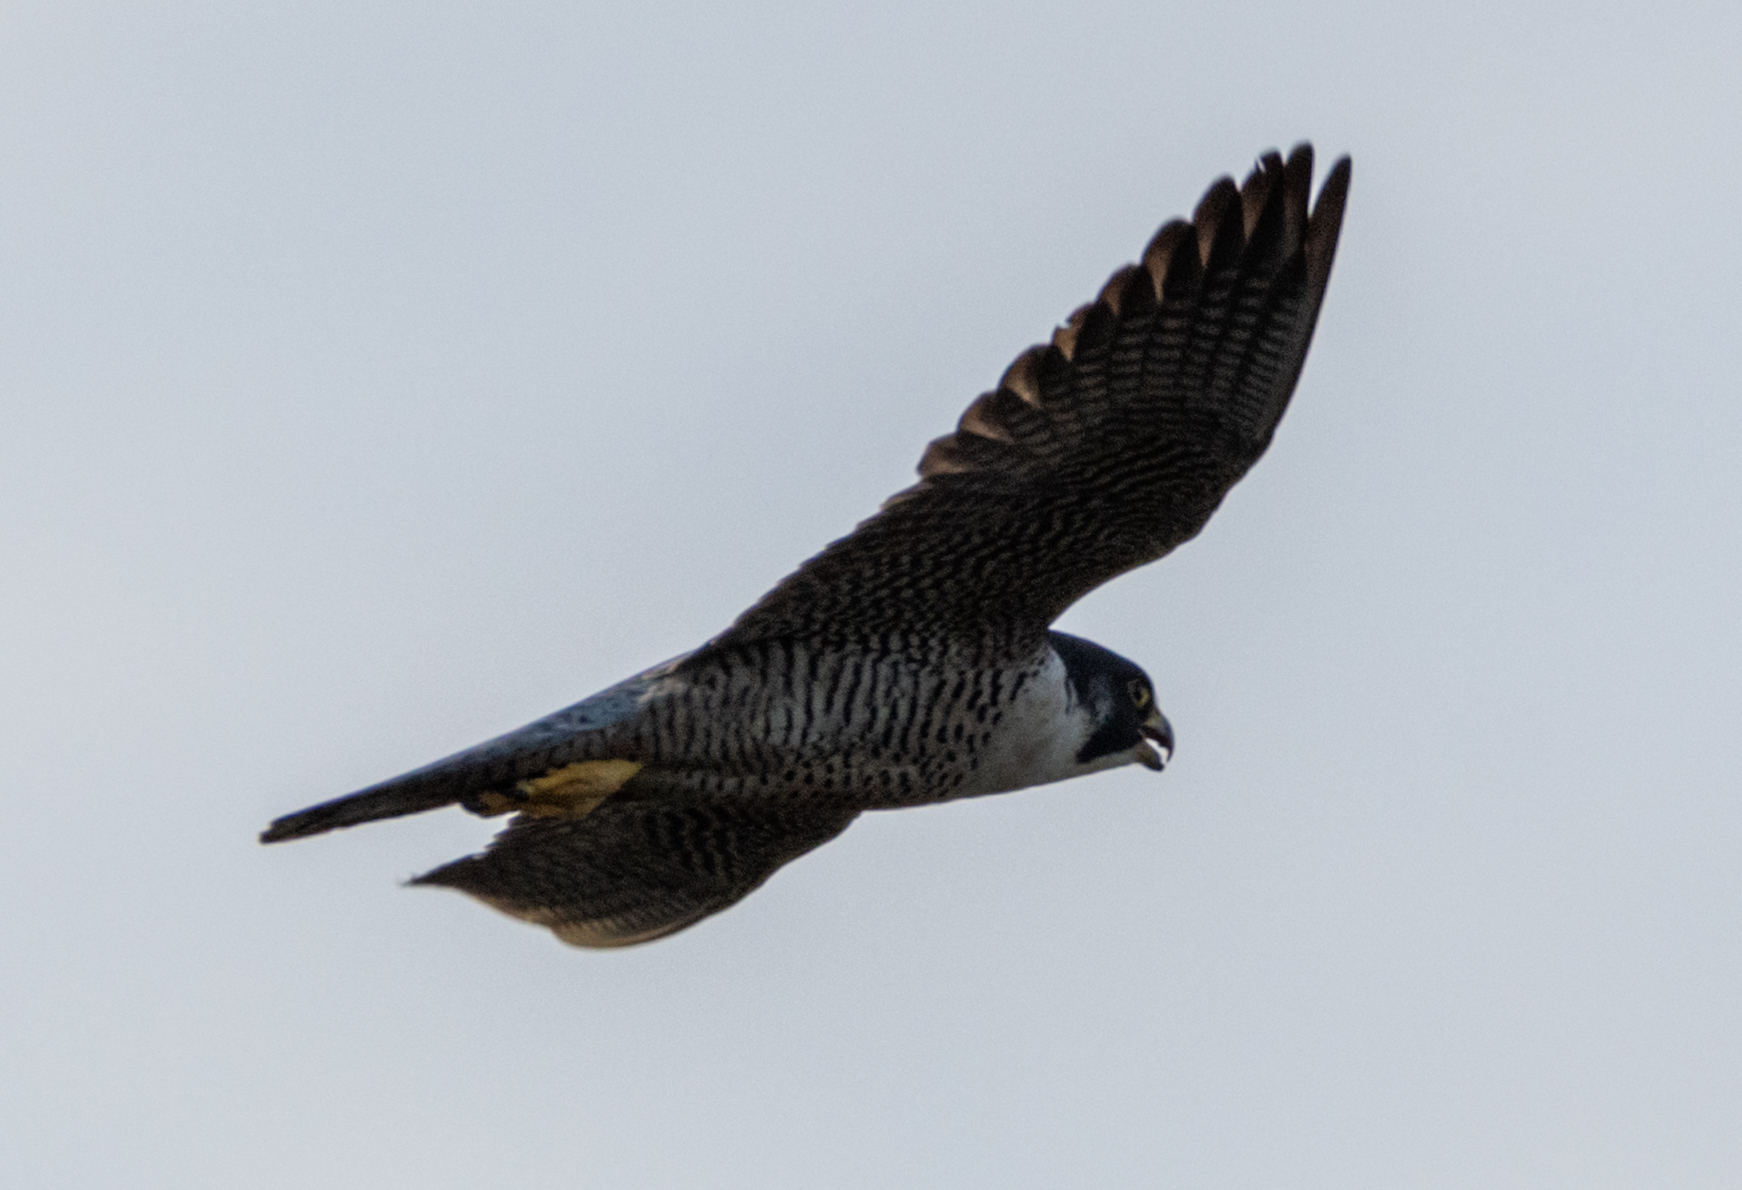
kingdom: Animalia
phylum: Chordata
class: Aves
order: Falconiformes
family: Falconidae
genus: Falco
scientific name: Falco peregrinus
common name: Peregrine falcon
